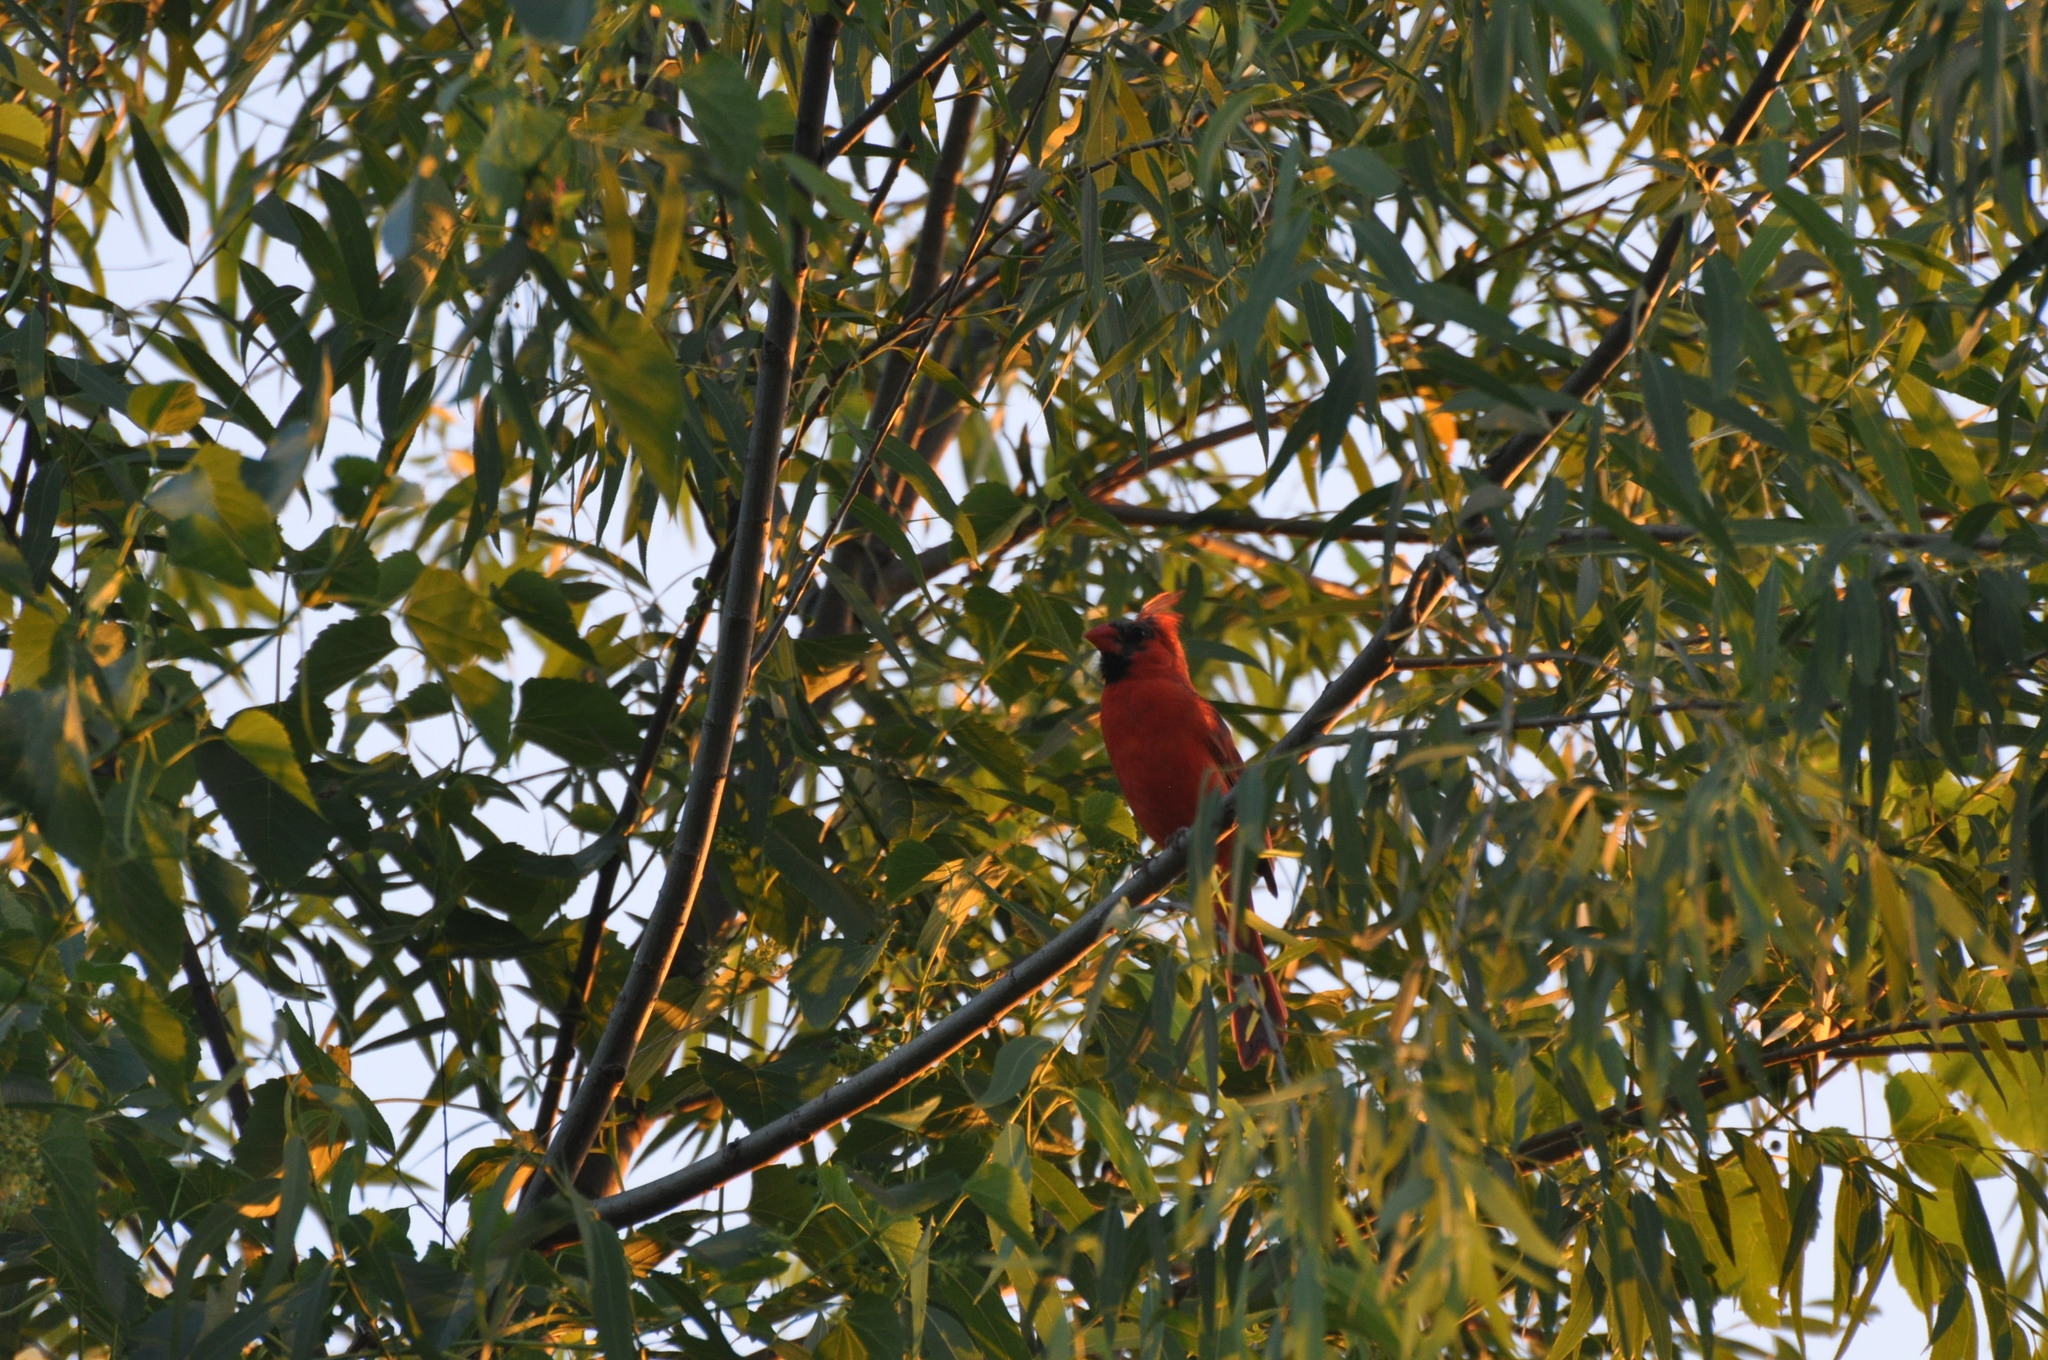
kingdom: Animalia
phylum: Chordata
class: Aves
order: Passeriformes
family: Cardinalidae
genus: Cardinalis
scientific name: Cardinalis cardinalis
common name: Northern cardinal
